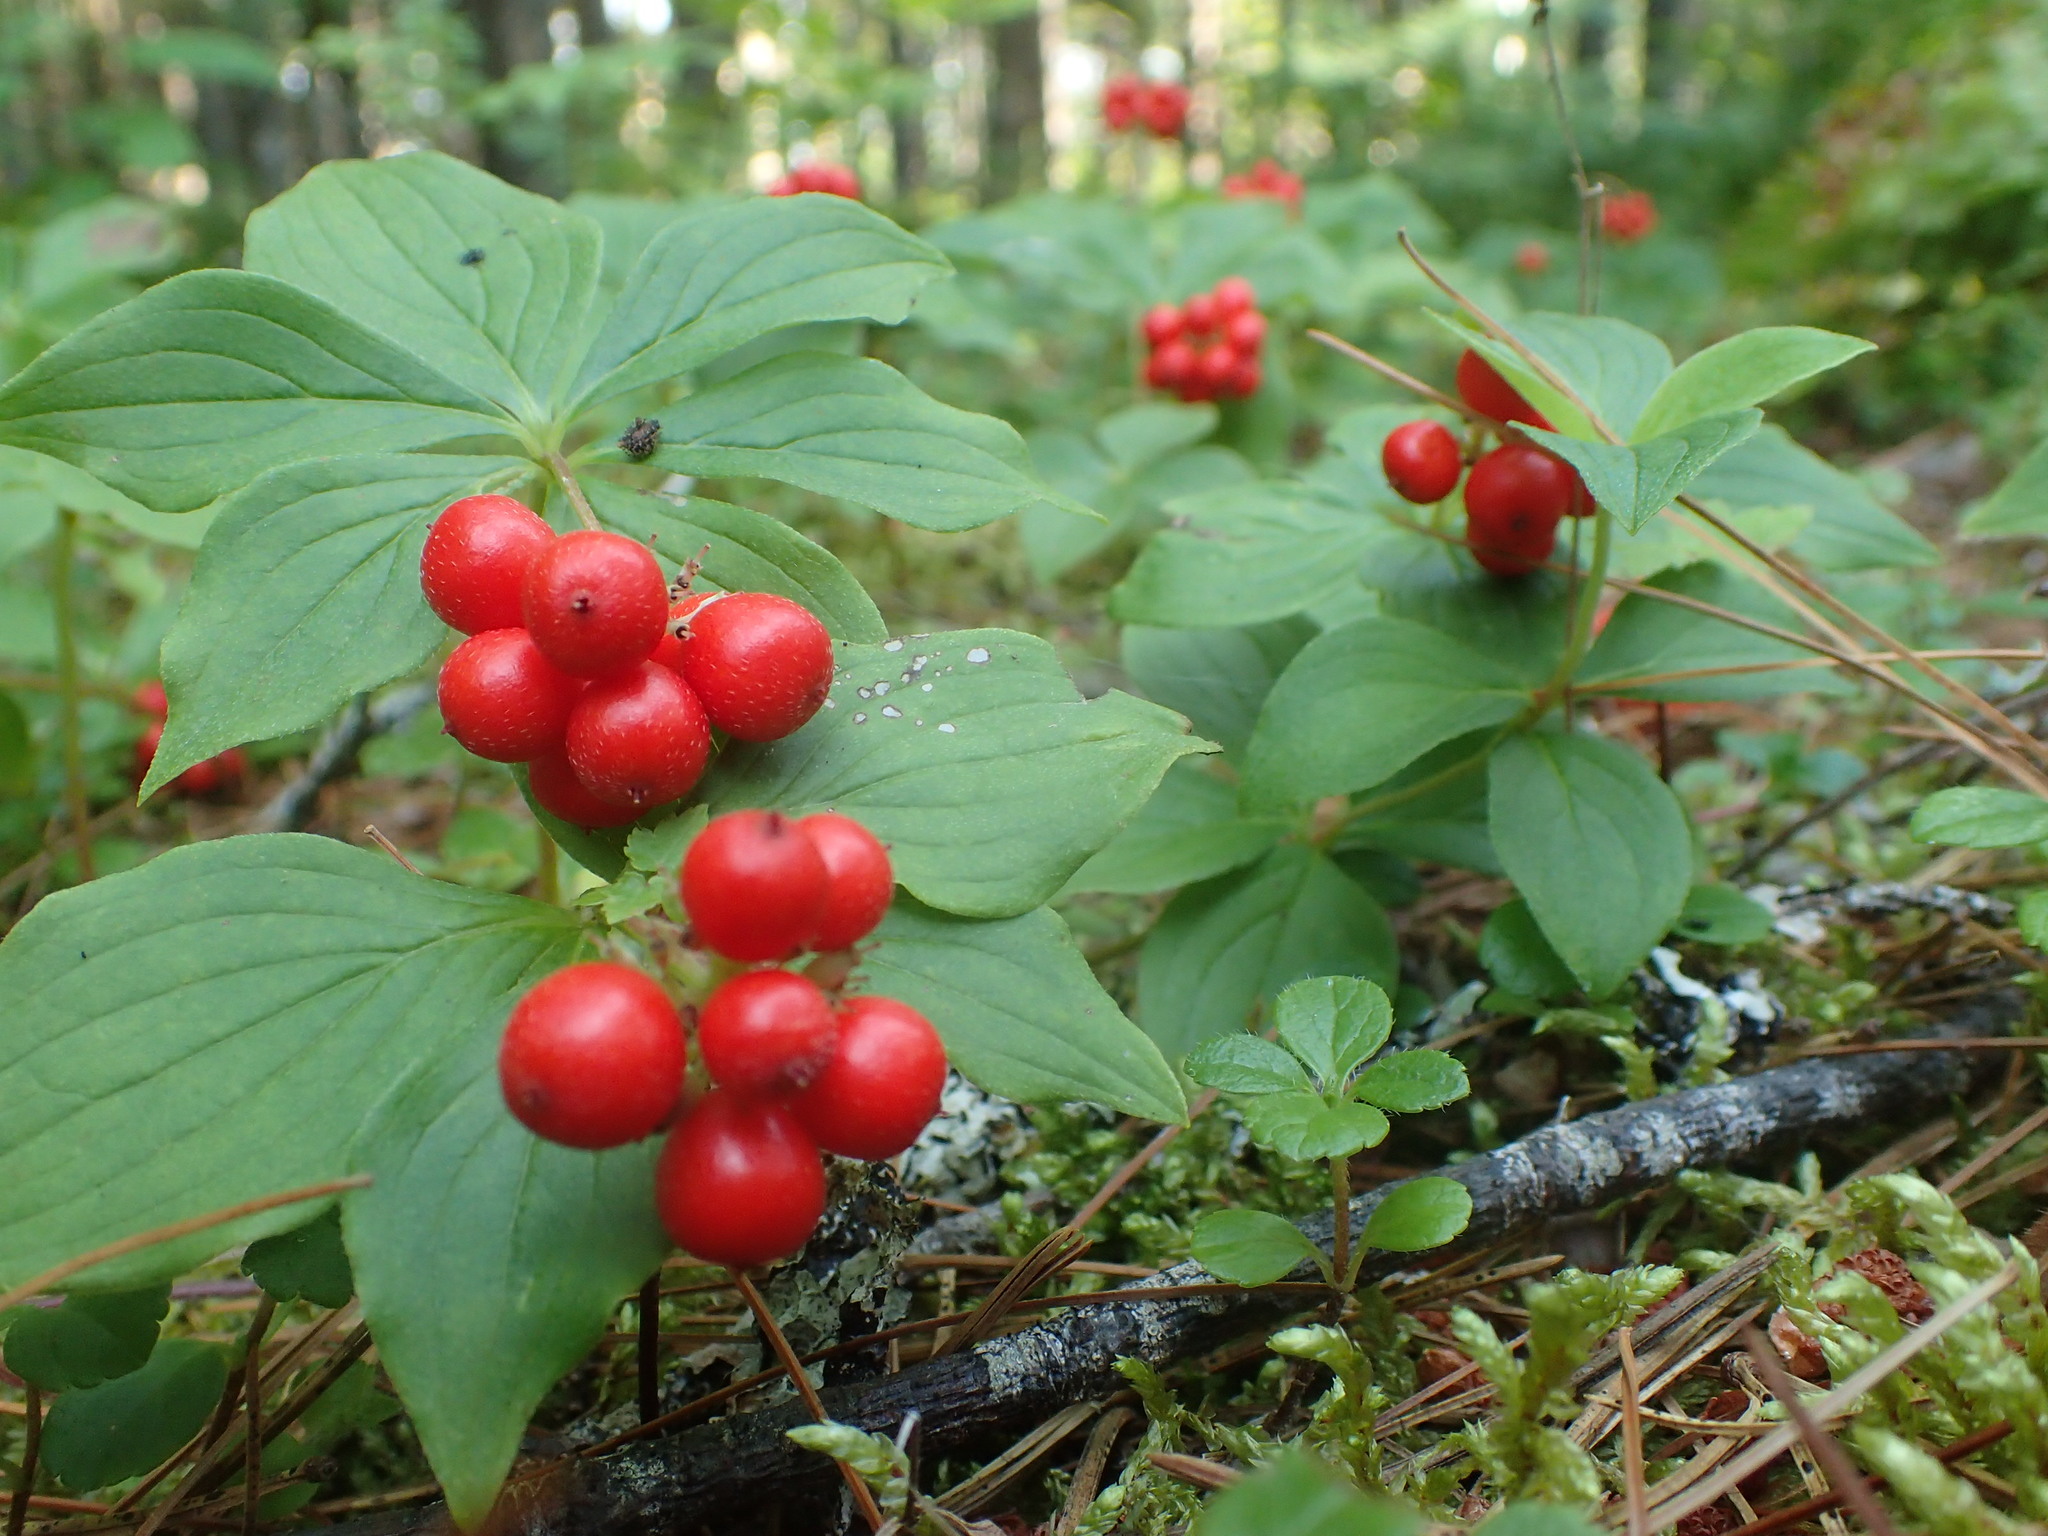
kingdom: Plantae
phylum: Tracheophyta
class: Magnoliopsida
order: Cornales
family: Cornaceae
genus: Cornus
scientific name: Cornus canadensis
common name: Creeping dogwood
